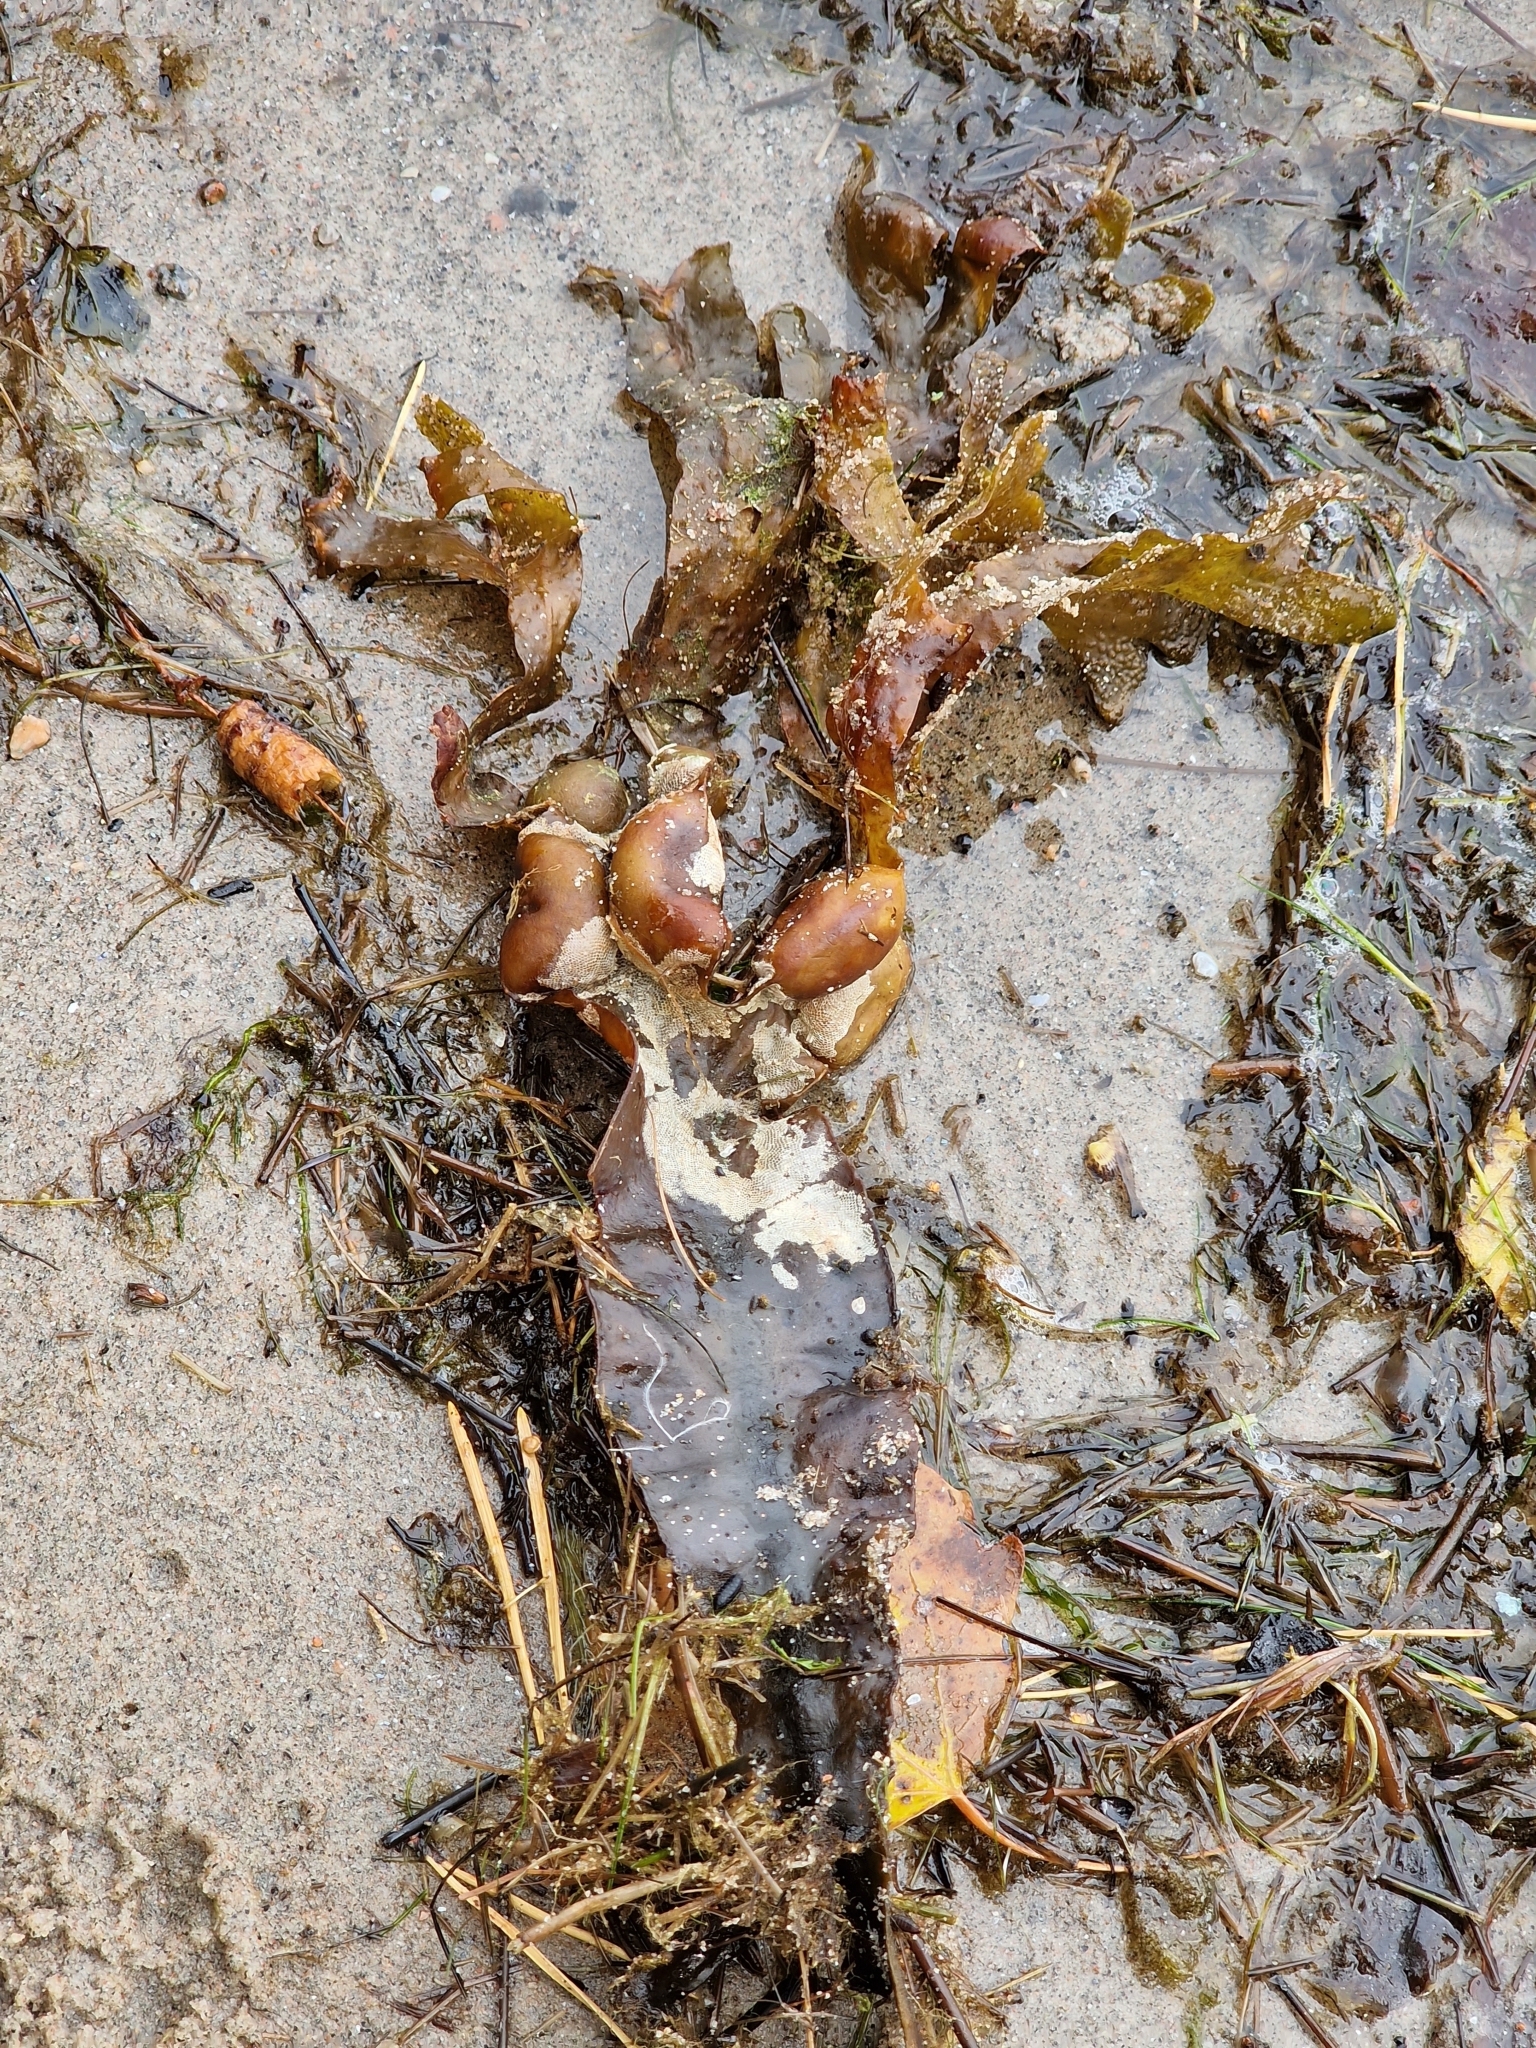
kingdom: Chromista
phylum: Ochrophyta
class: Phaeophyceae
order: Fucales
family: Fucaceae
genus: Fucus
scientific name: Fucus vesiculosus
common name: Bladder wrack
